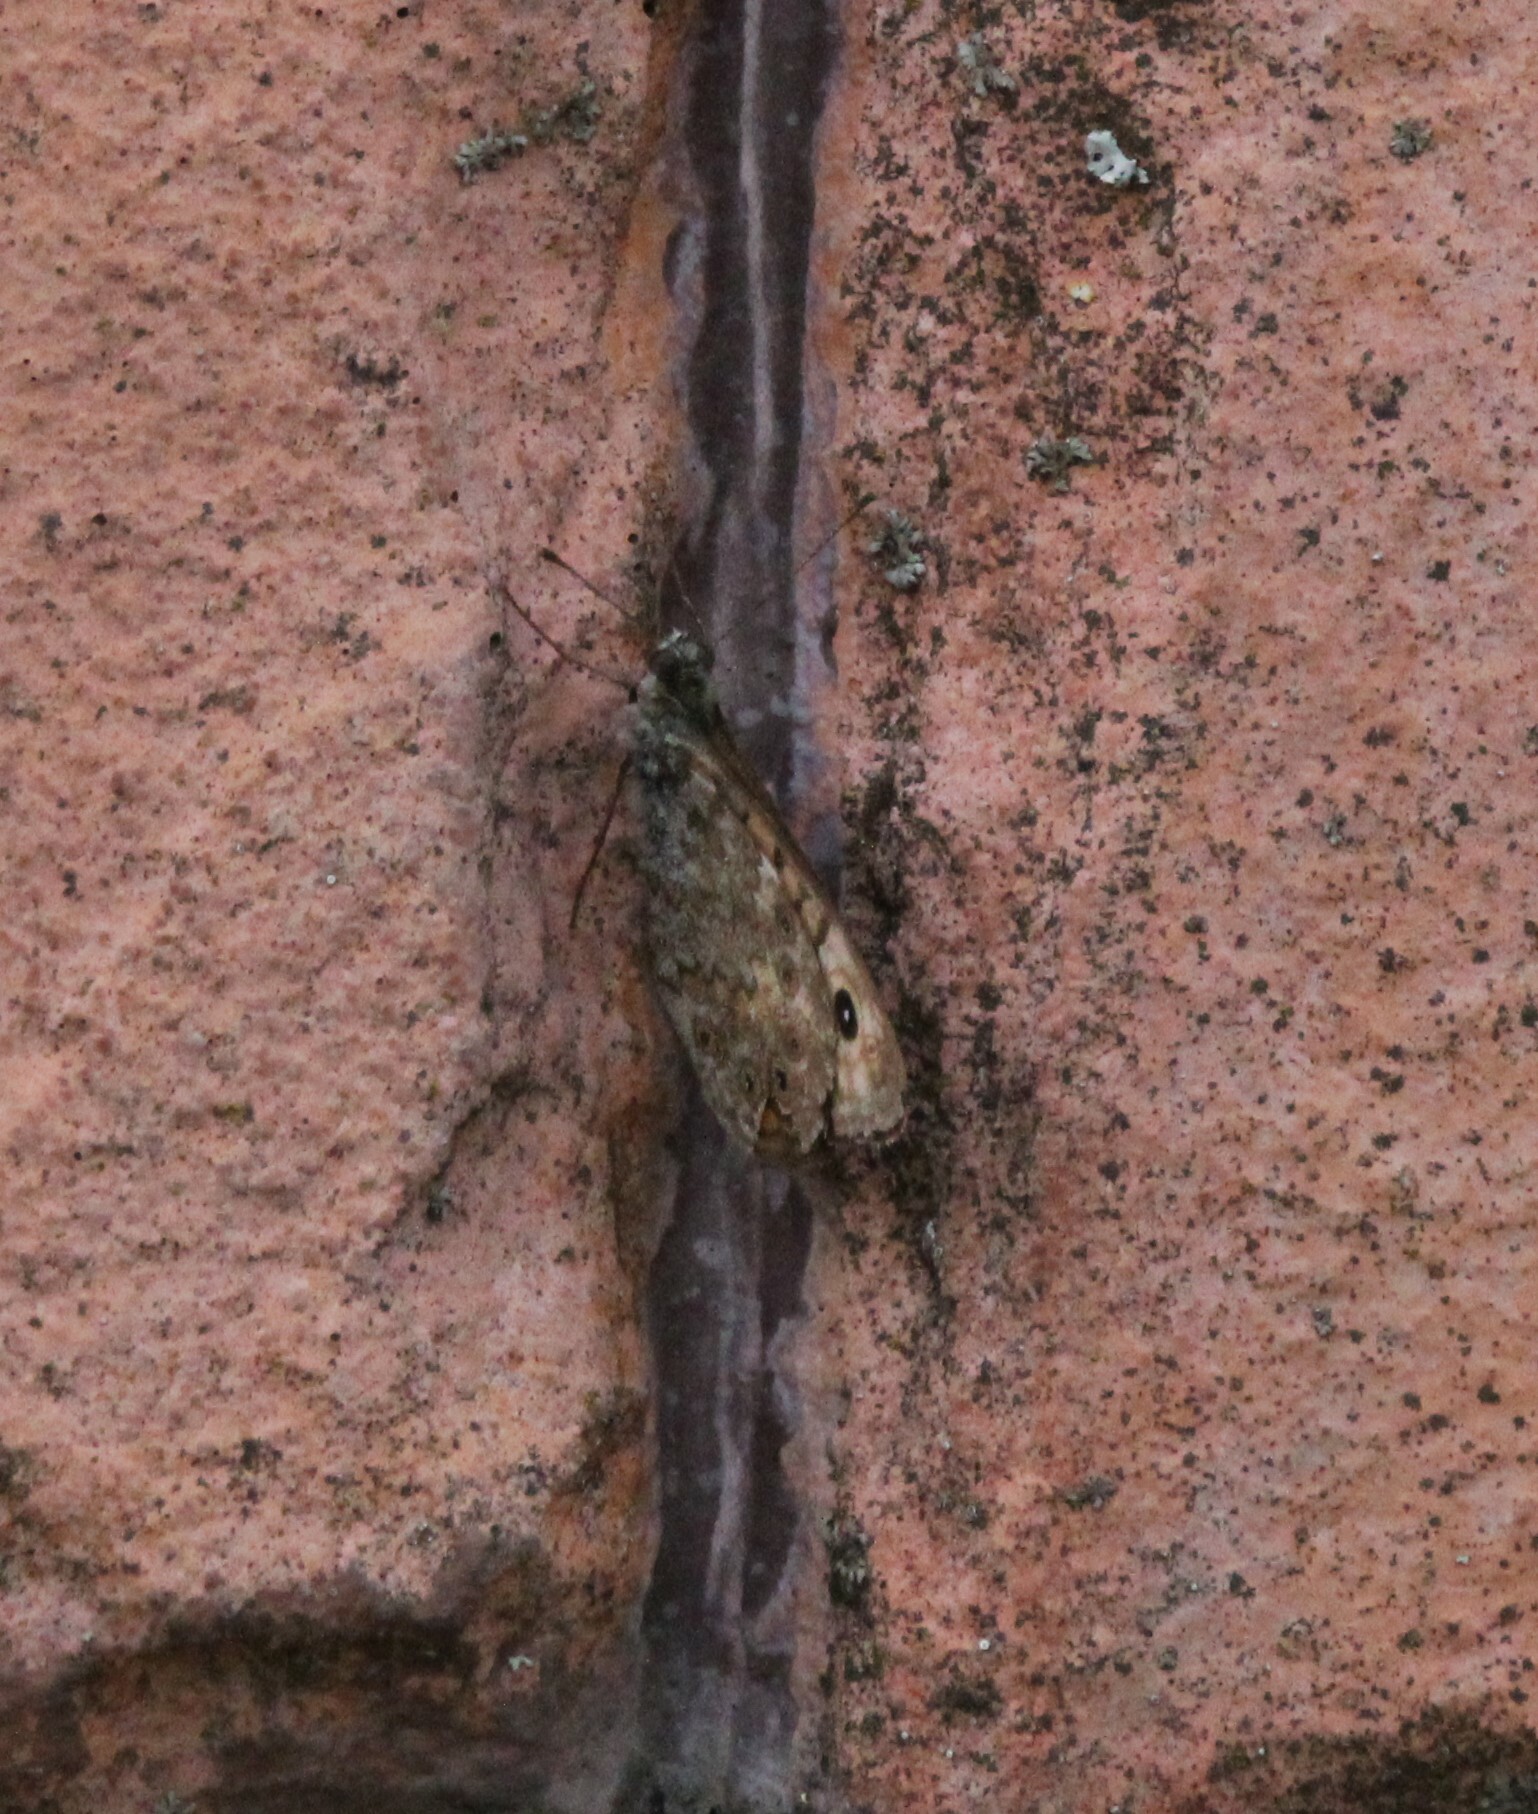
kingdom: Animalia
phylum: Arthropoda
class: Insecta
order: Lepidoptera
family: Nymphalidae
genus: Pararge
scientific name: Pararge Lasiommata megera
